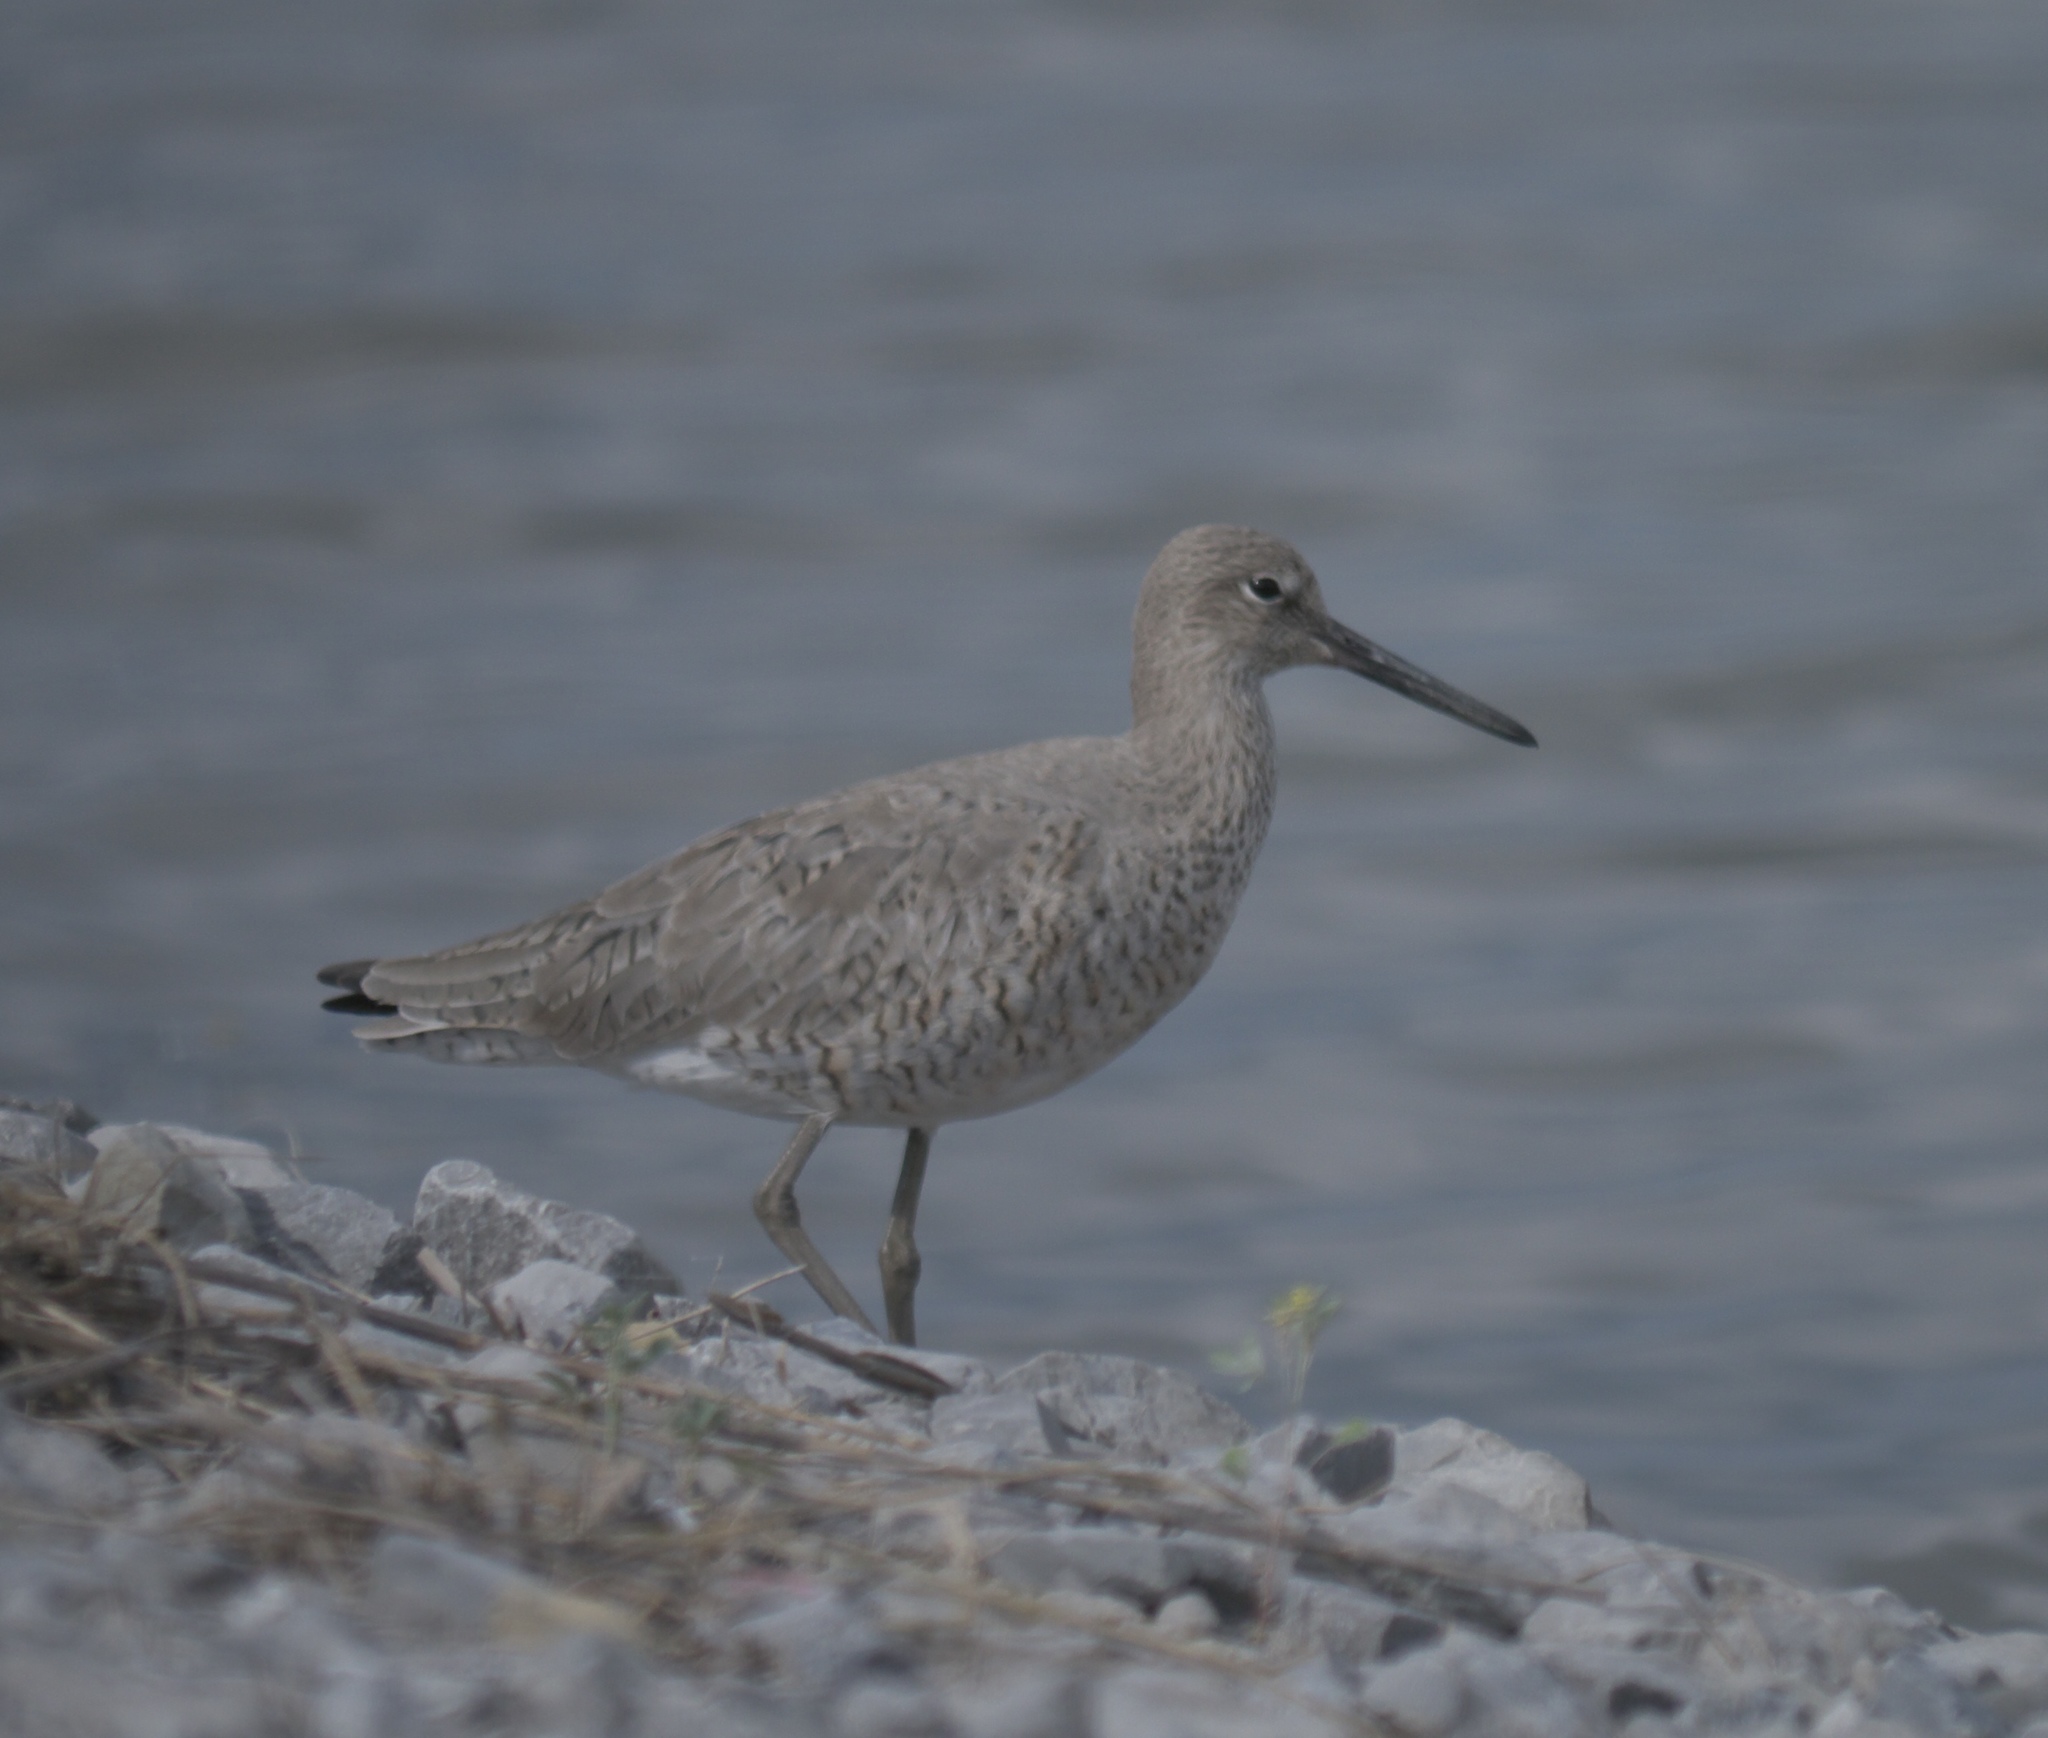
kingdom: Animalia
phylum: Chordata
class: Aves
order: Charadriiformes
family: Scolopacidae
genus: Tringa
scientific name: Tringa semipalmata
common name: Willet
